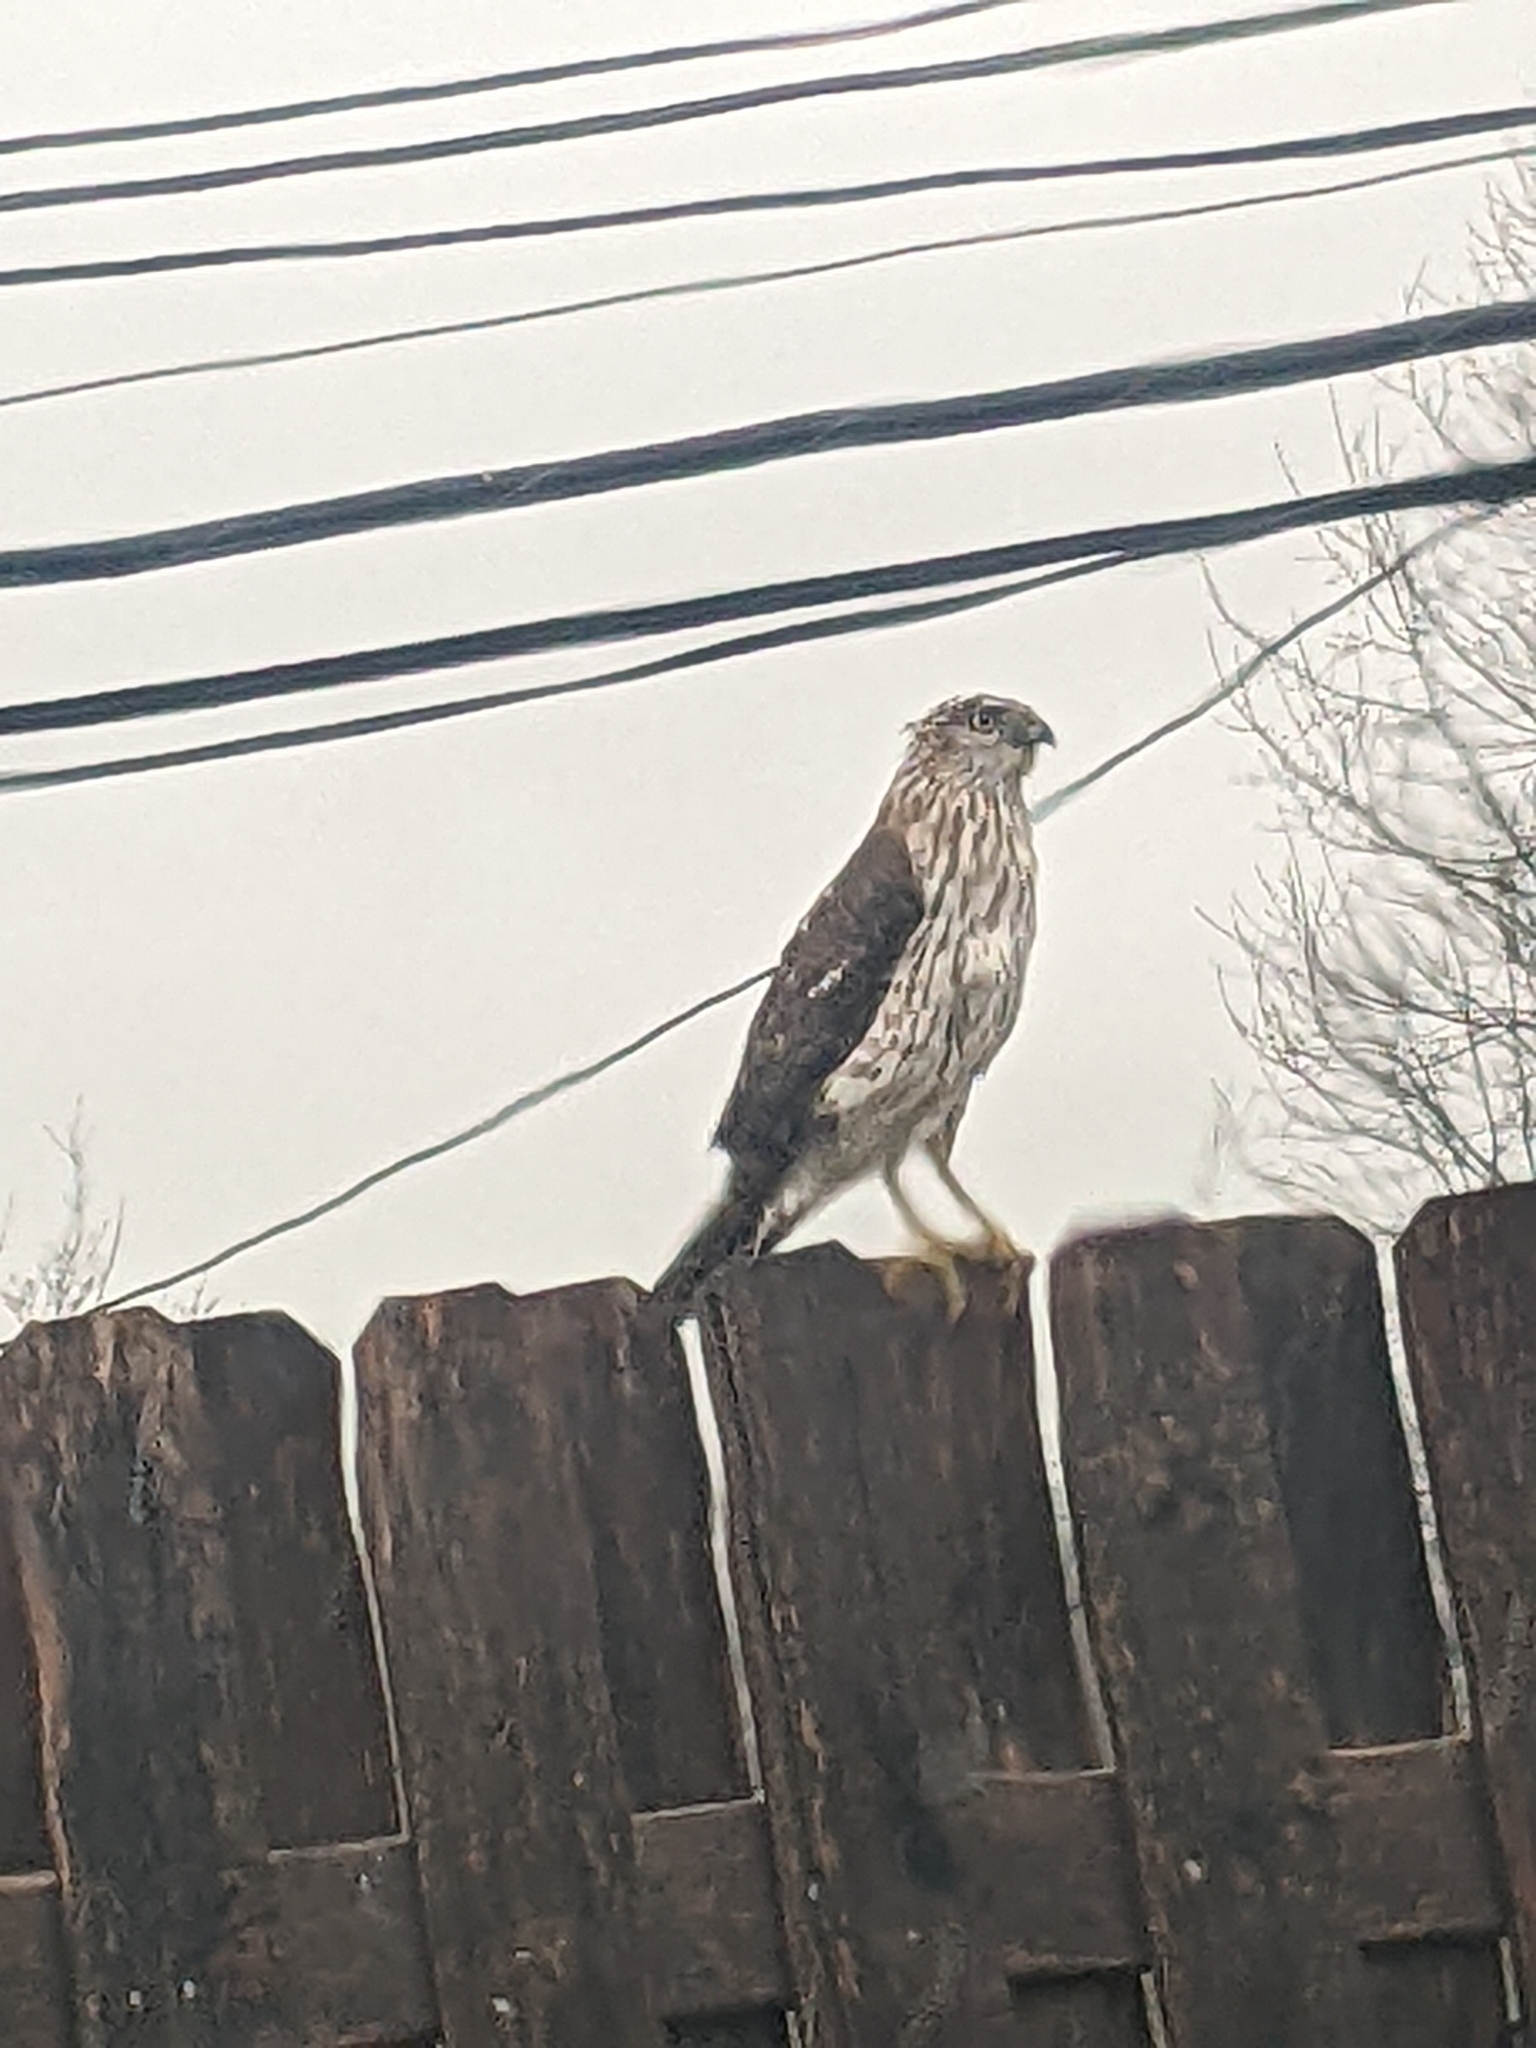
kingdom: Animalia
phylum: Chordata
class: Aves
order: Accipitriformes
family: Accipitridae
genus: Accipiter
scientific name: Accipiter cooperii
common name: Cooper's hawk
